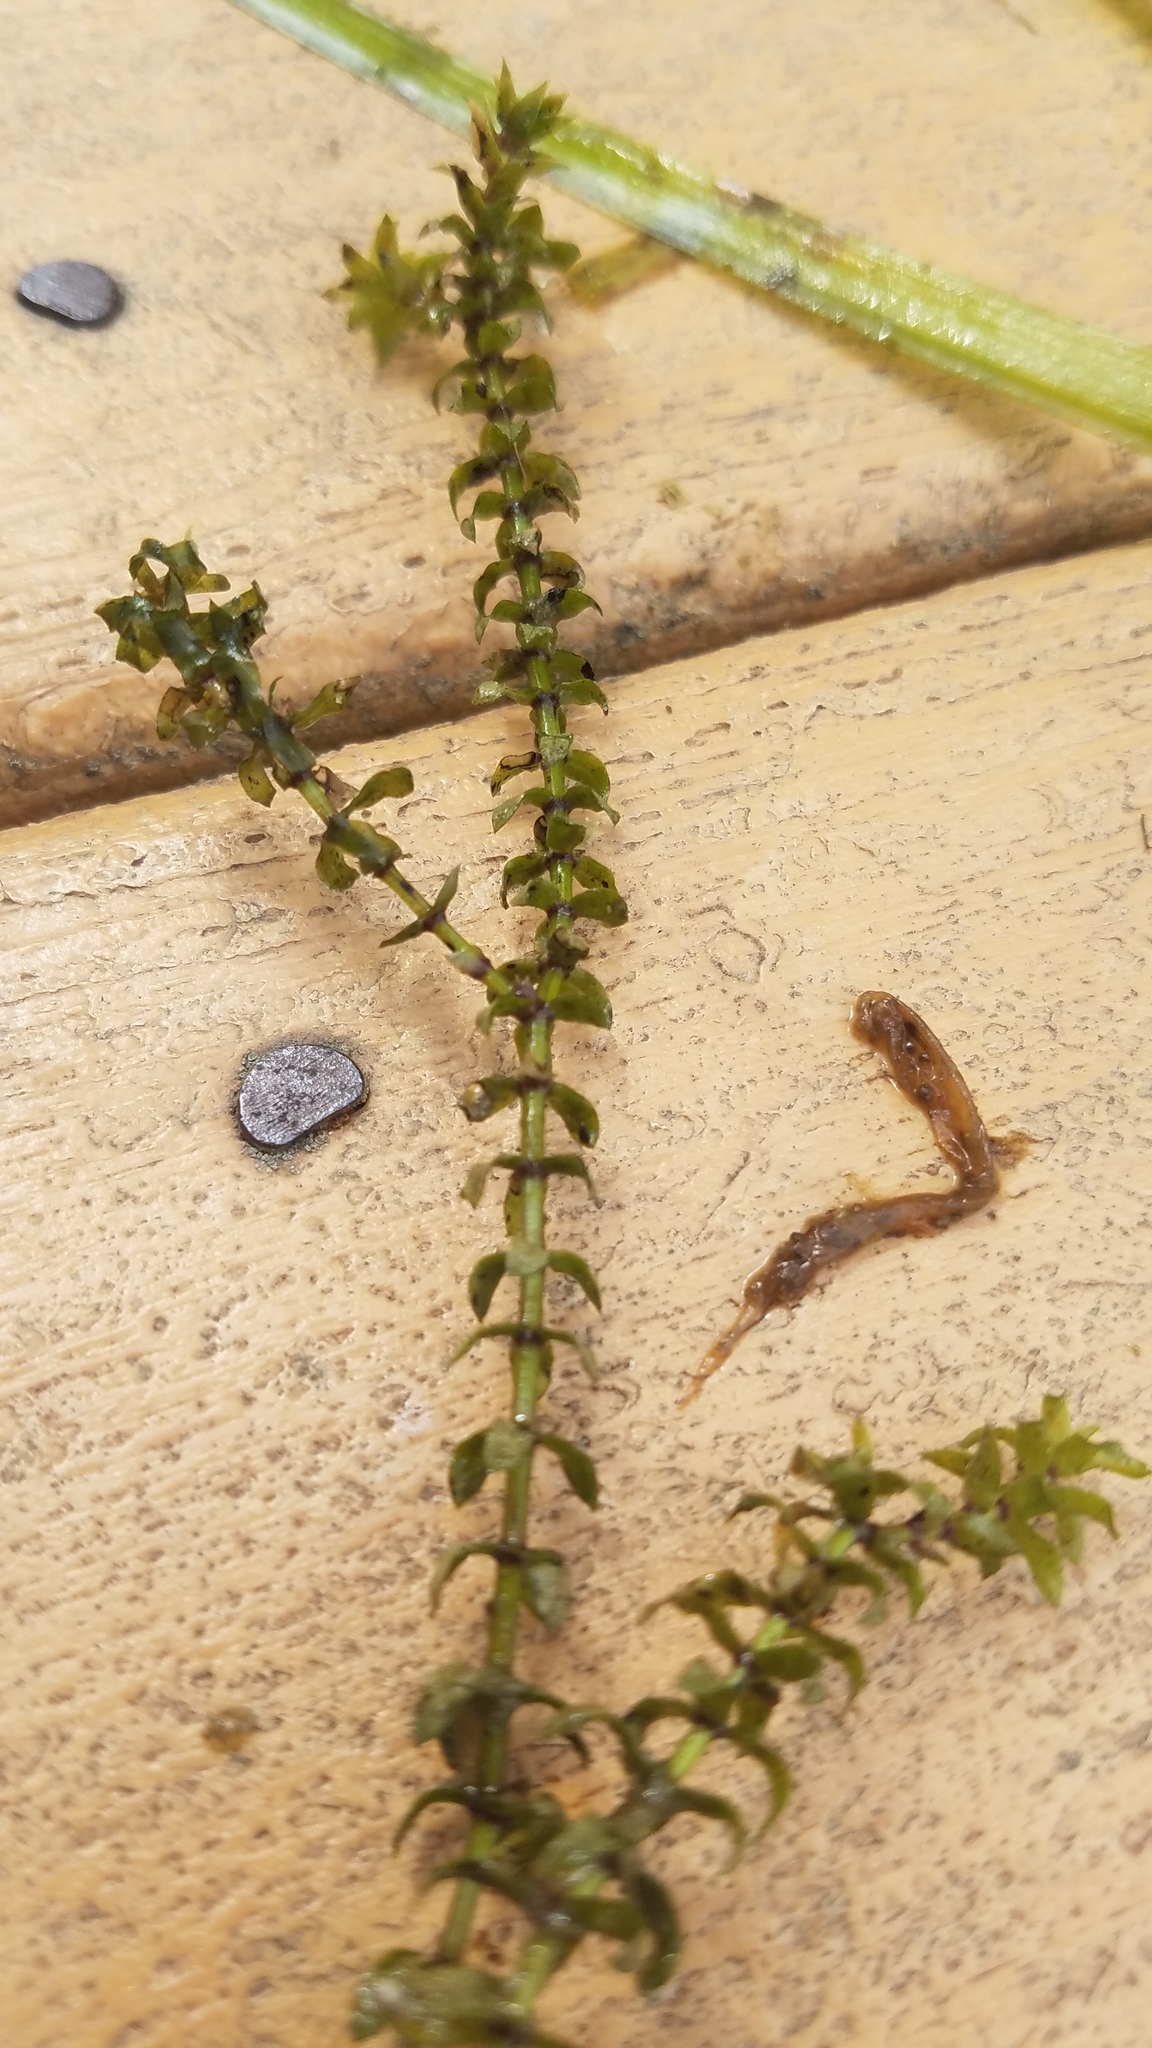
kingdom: Plantae
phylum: Tracheophyta
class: Liliopsida
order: Alismatales
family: Hydrocharitaceae
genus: Elodea
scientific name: Elodea canadensis
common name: Canadian waterweed
